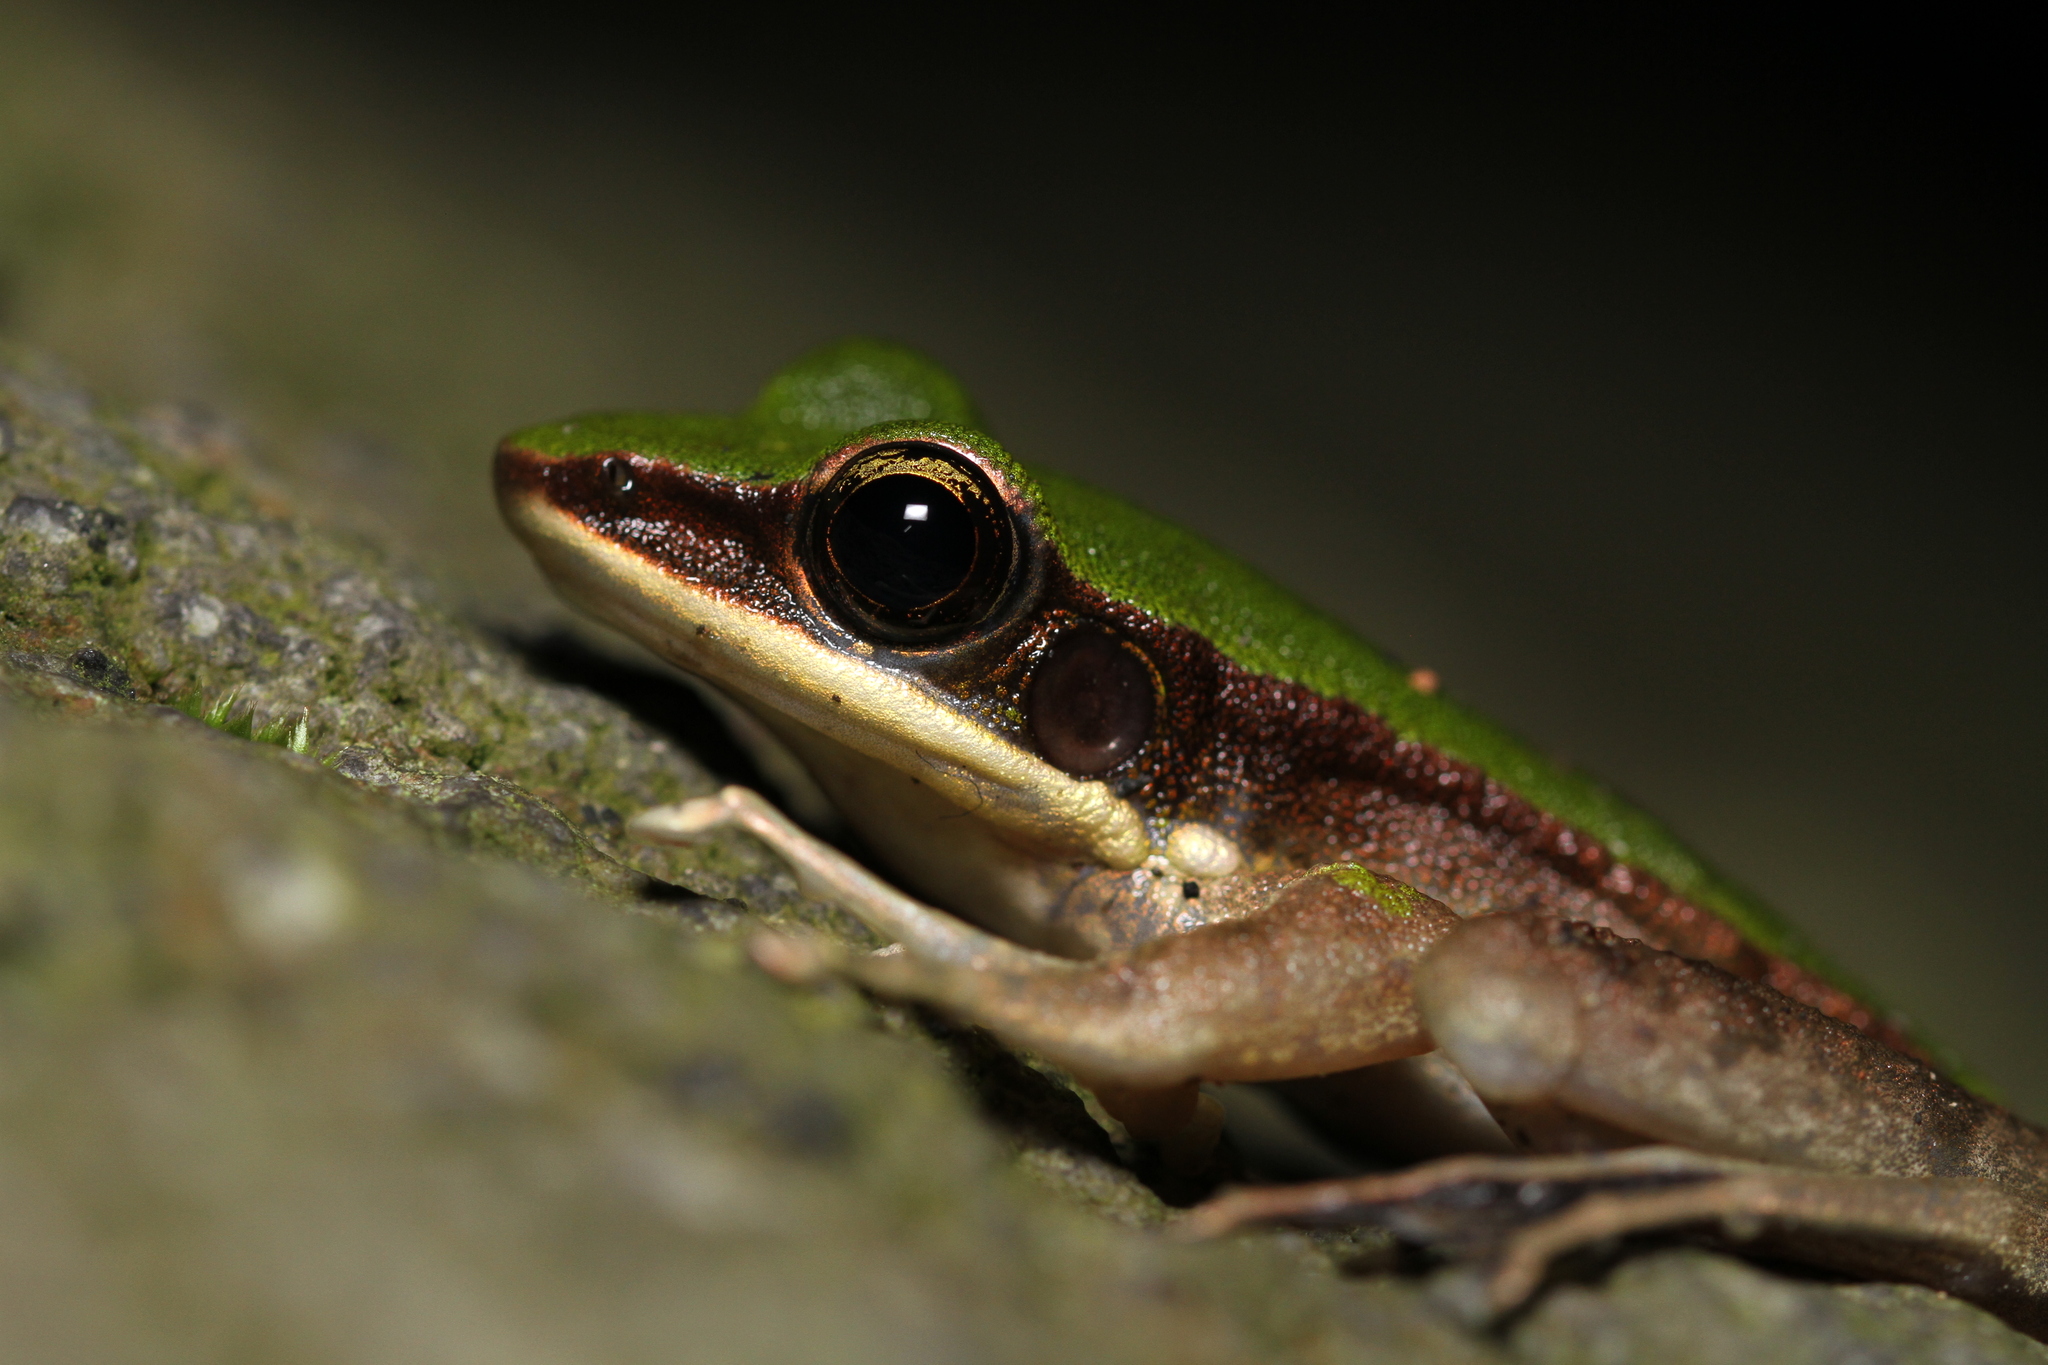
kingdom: Animalia
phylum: Chordata
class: Amphibia
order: Anura
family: Ranidae
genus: Odorrana
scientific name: Odorrana hosii
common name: Green tree frog
